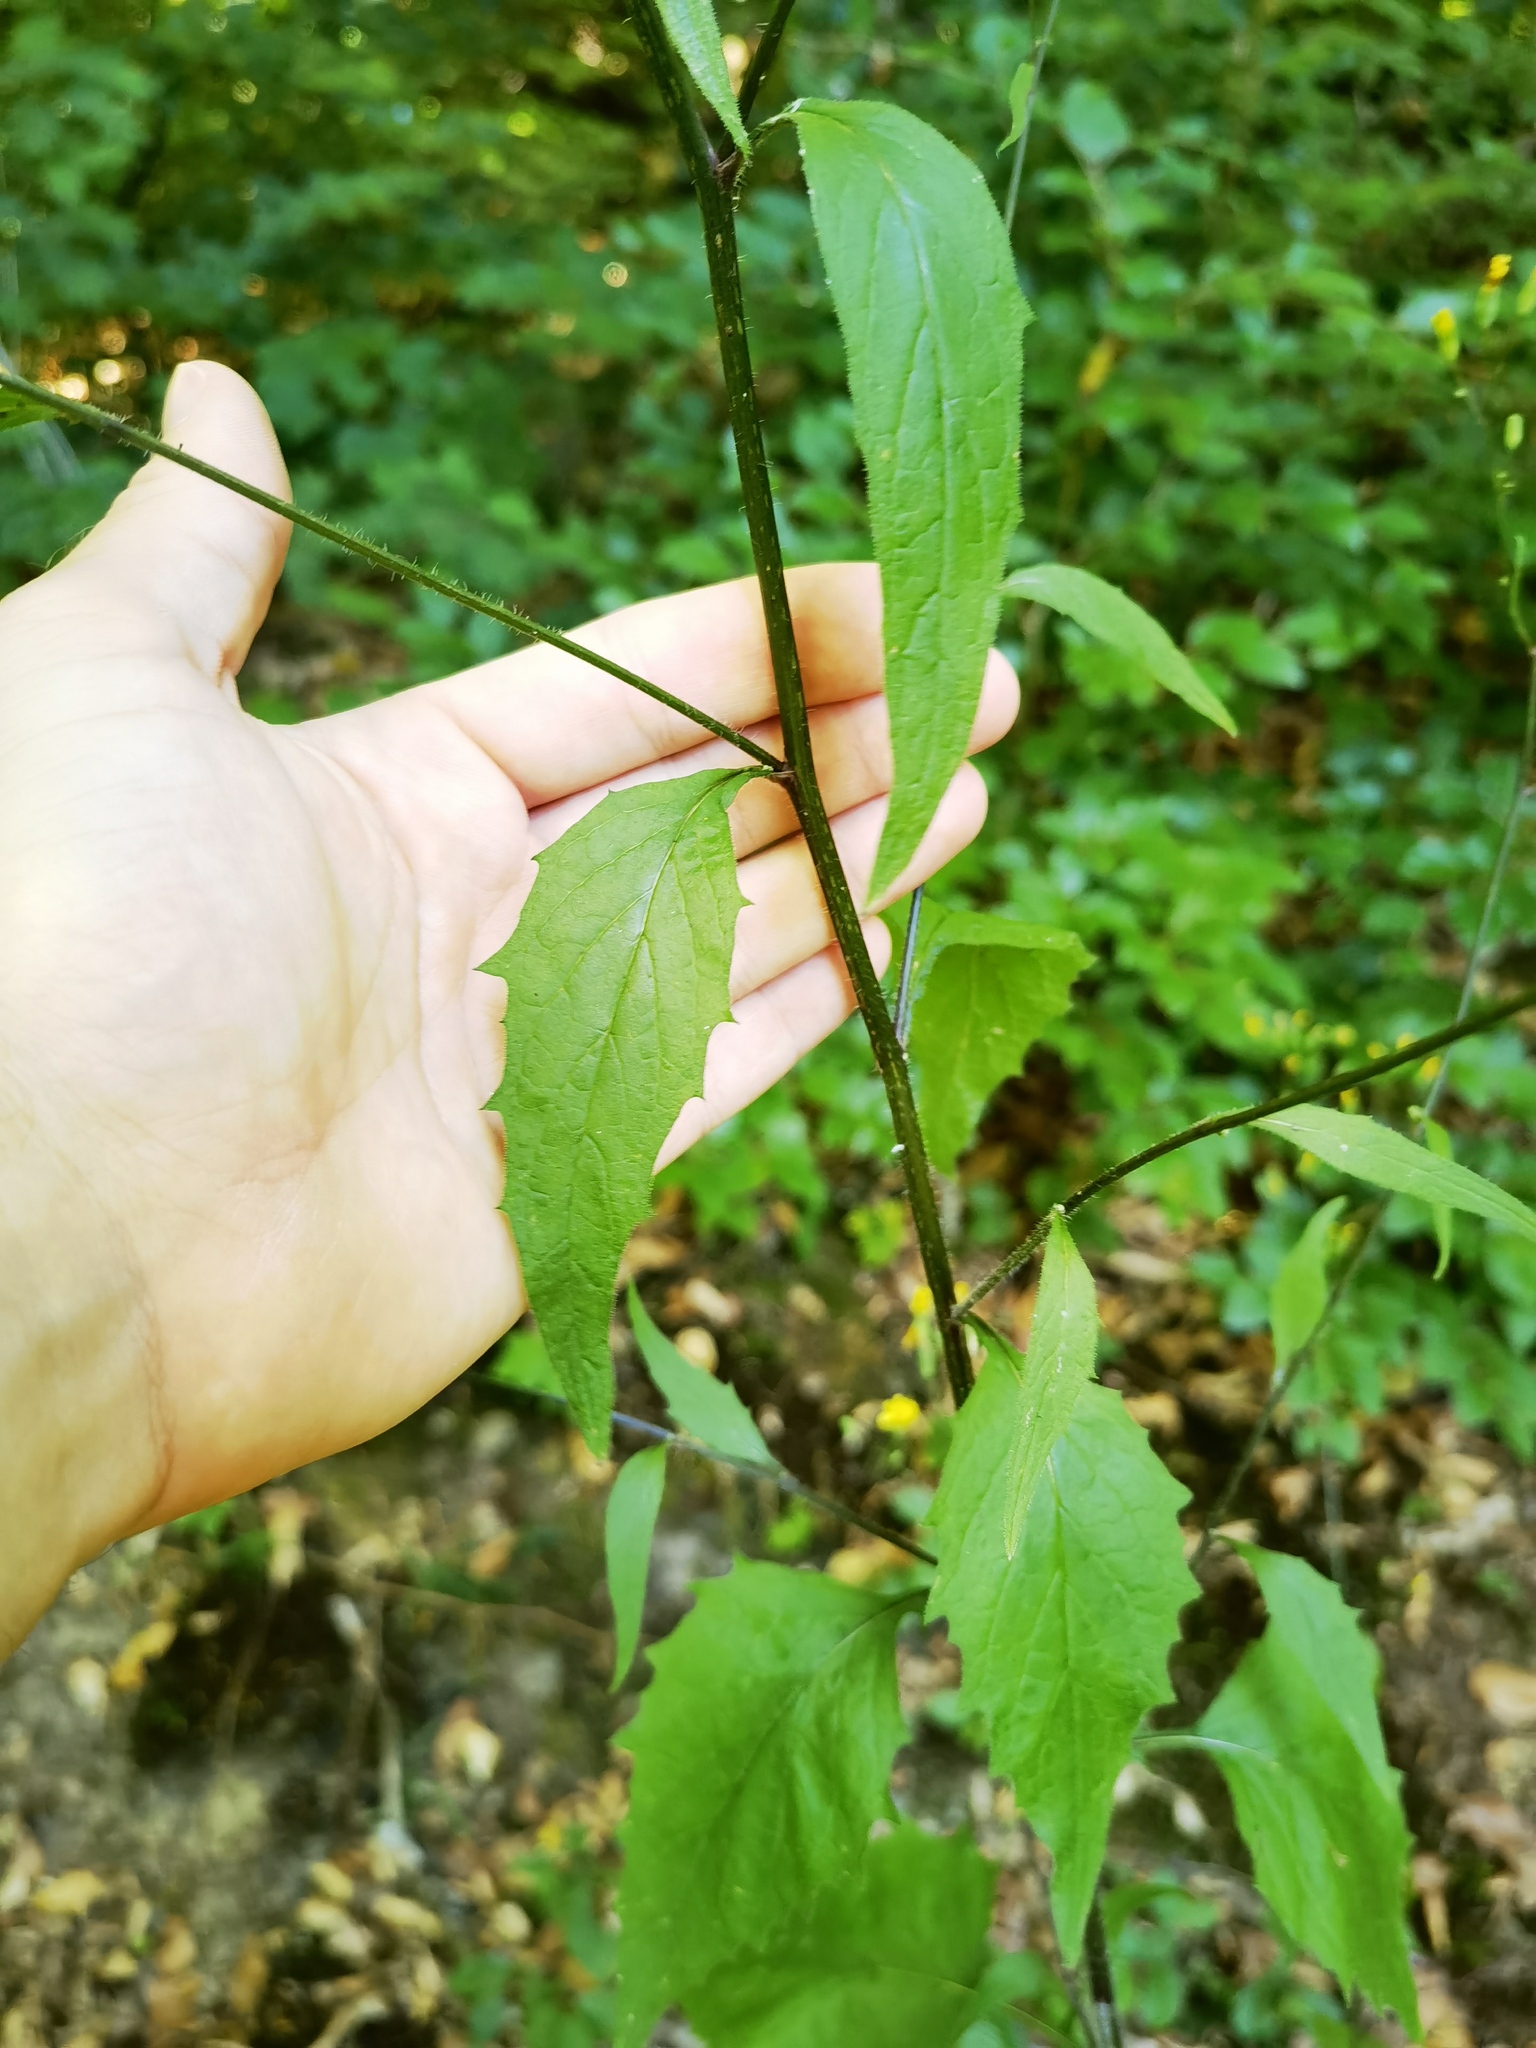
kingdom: Plantae
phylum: Tracheophyta
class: Magnoliopsida
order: Asterales
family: Asteraceae
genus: Lapsana
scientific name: Lapsana communis
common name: Nipplewort
